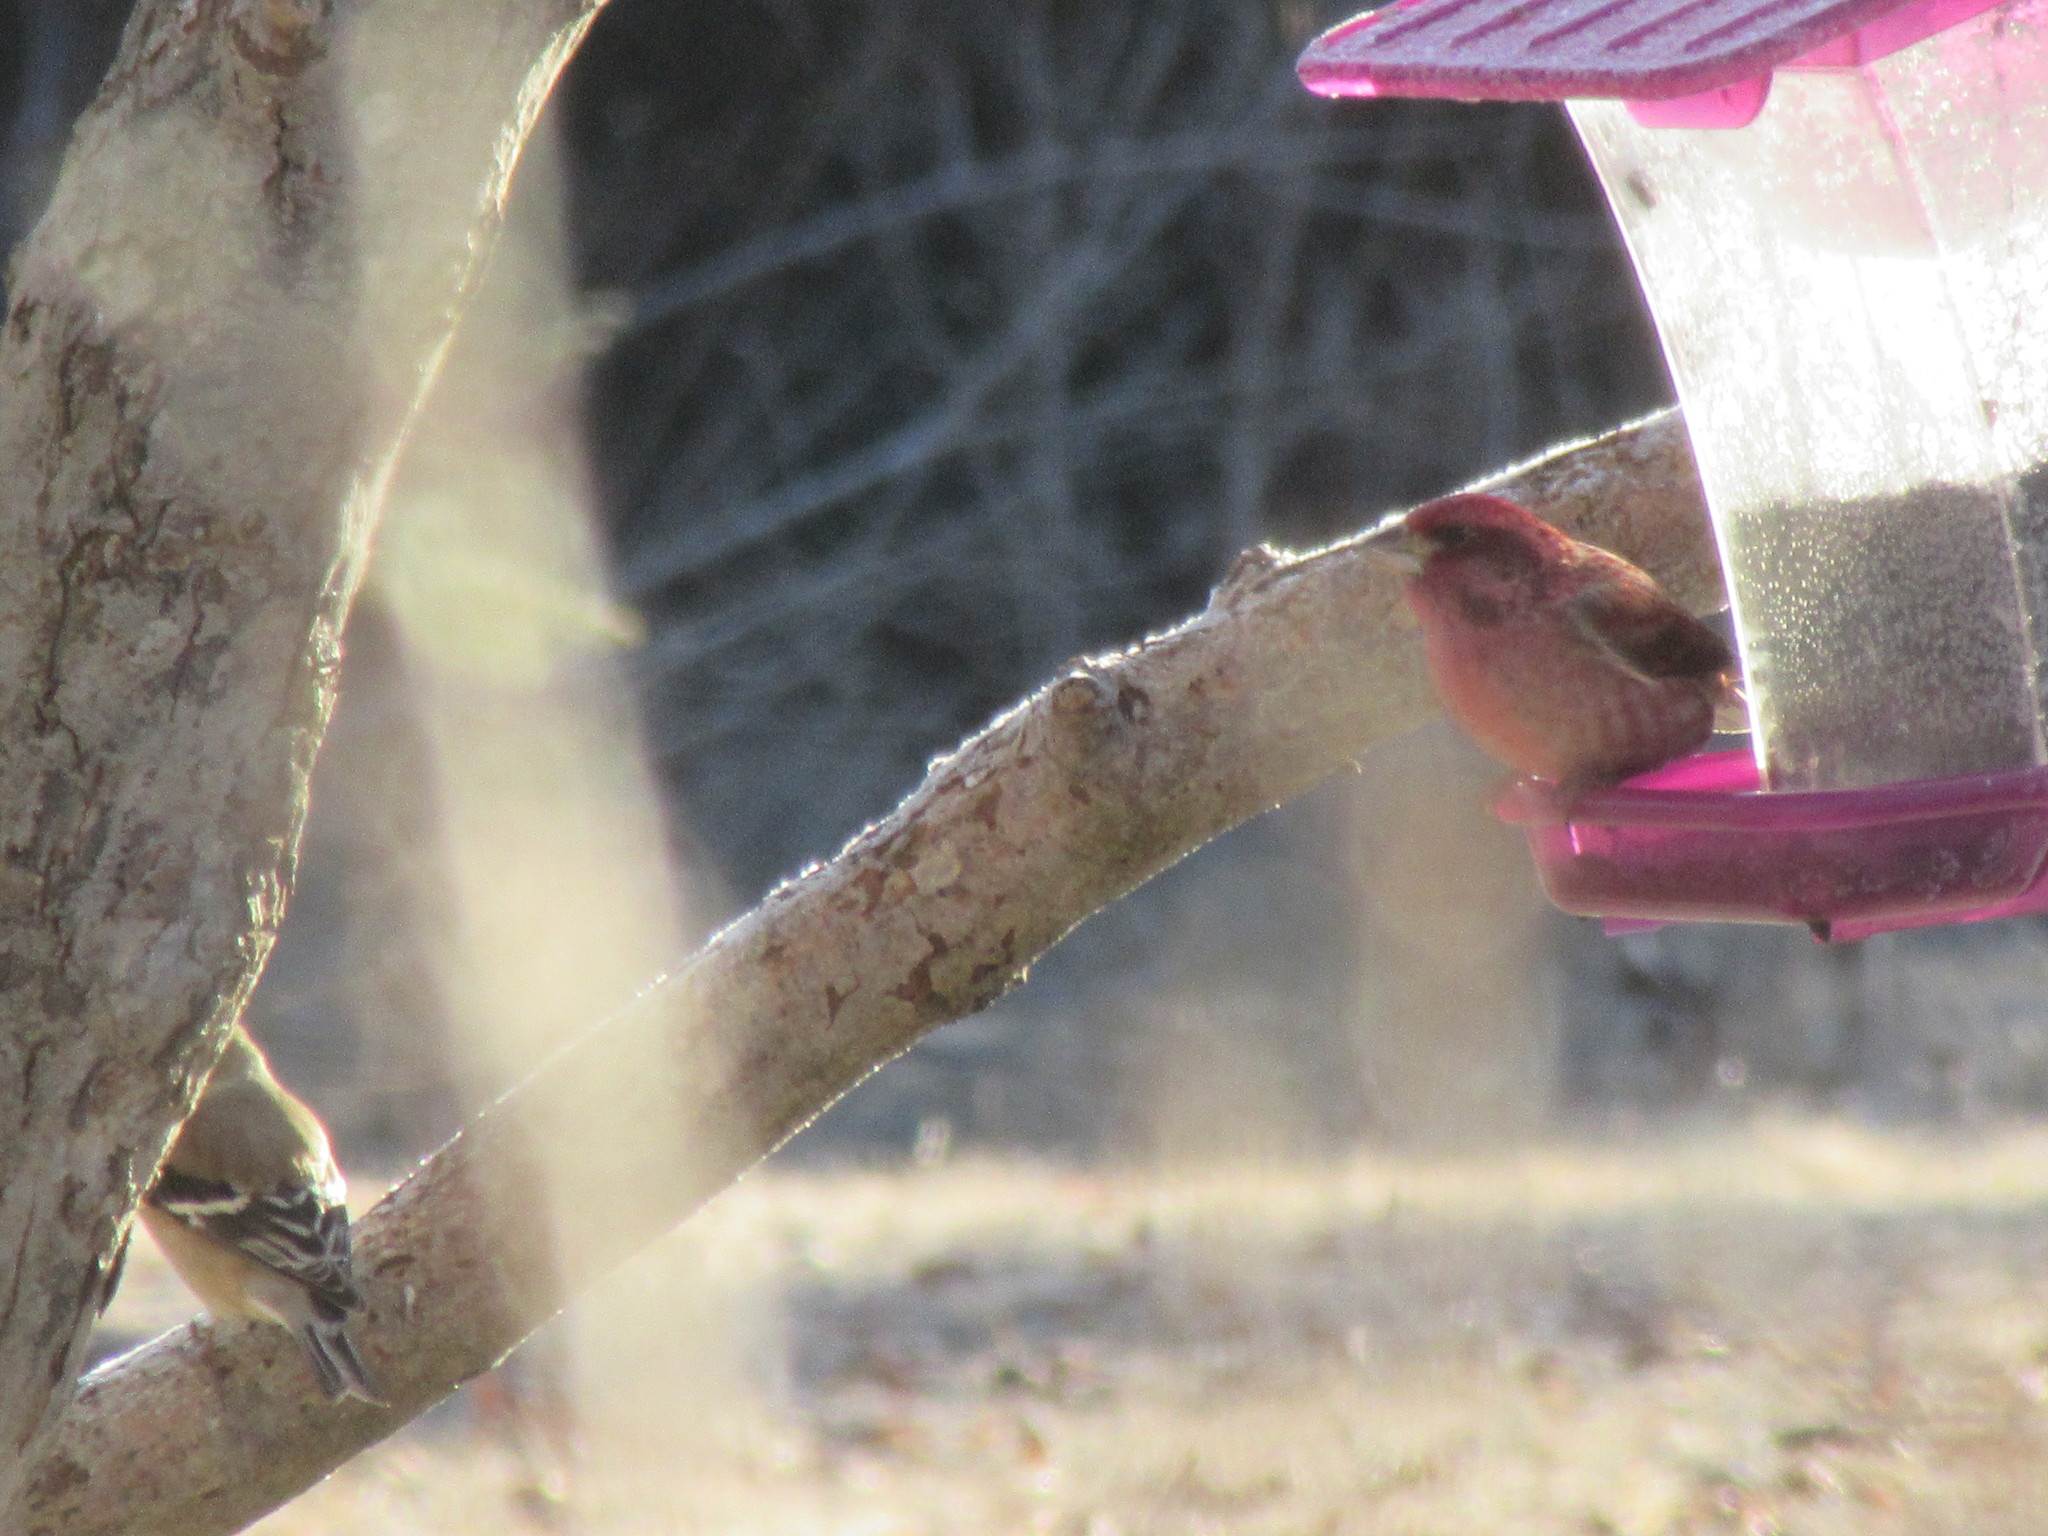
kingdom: Animalia
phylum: Chordata
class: Aves
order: Passeriformes
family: Fringillidae
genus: Haemorhous
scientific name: Haemorhous purpureus
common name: Purple finch
